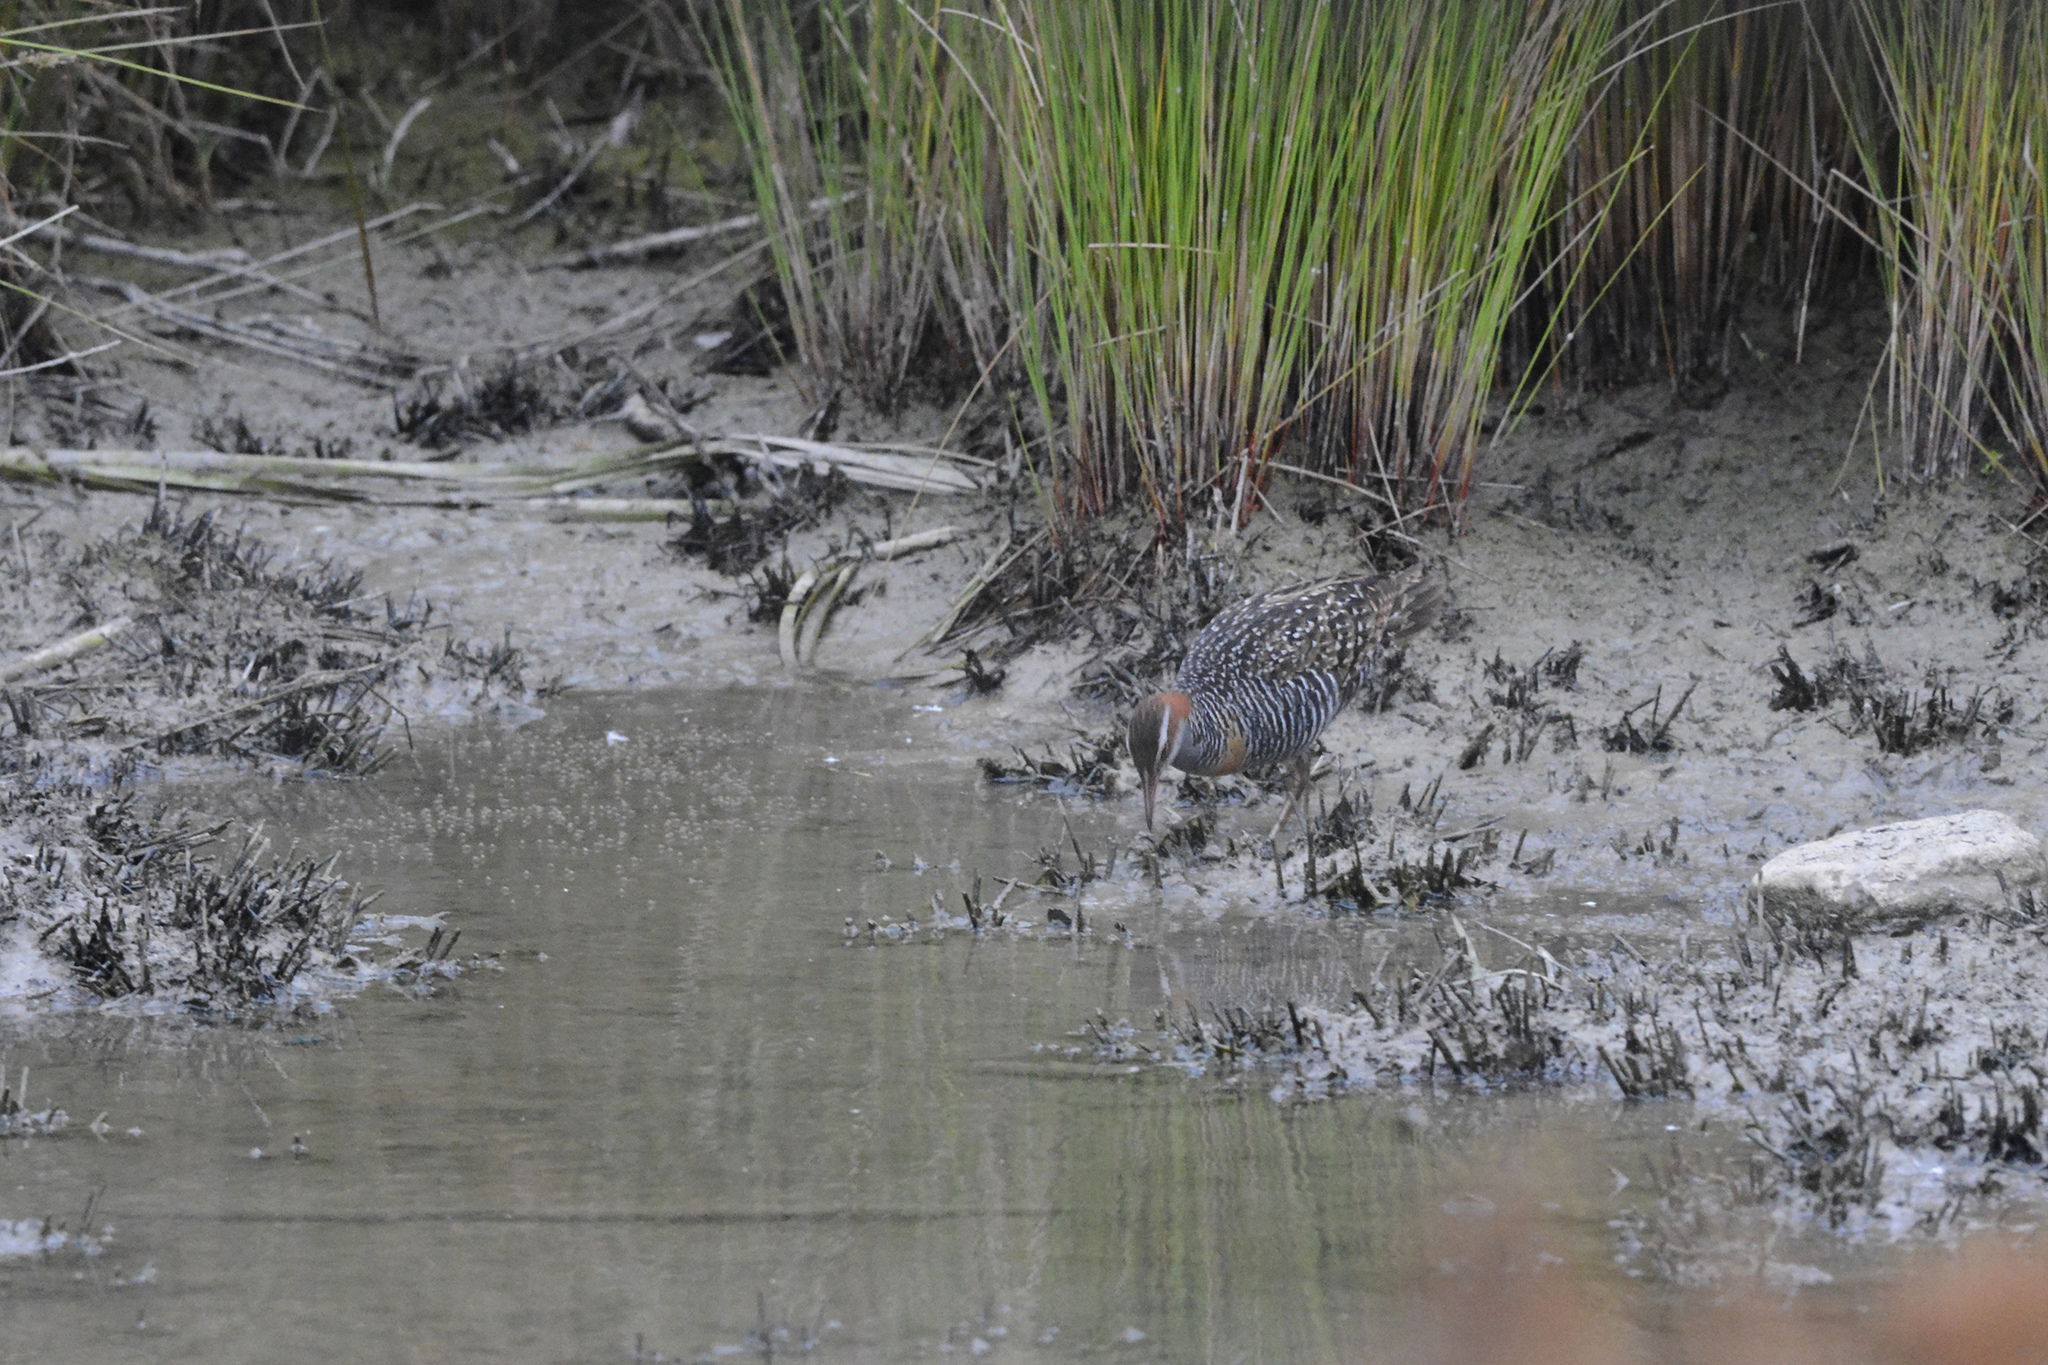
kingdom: Animalia
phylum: Chordata
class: Aves
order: Gruiformes
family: Rallidae
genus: Gallirallus
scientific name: Gallirallus philippensis
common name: Buff-banded rail
